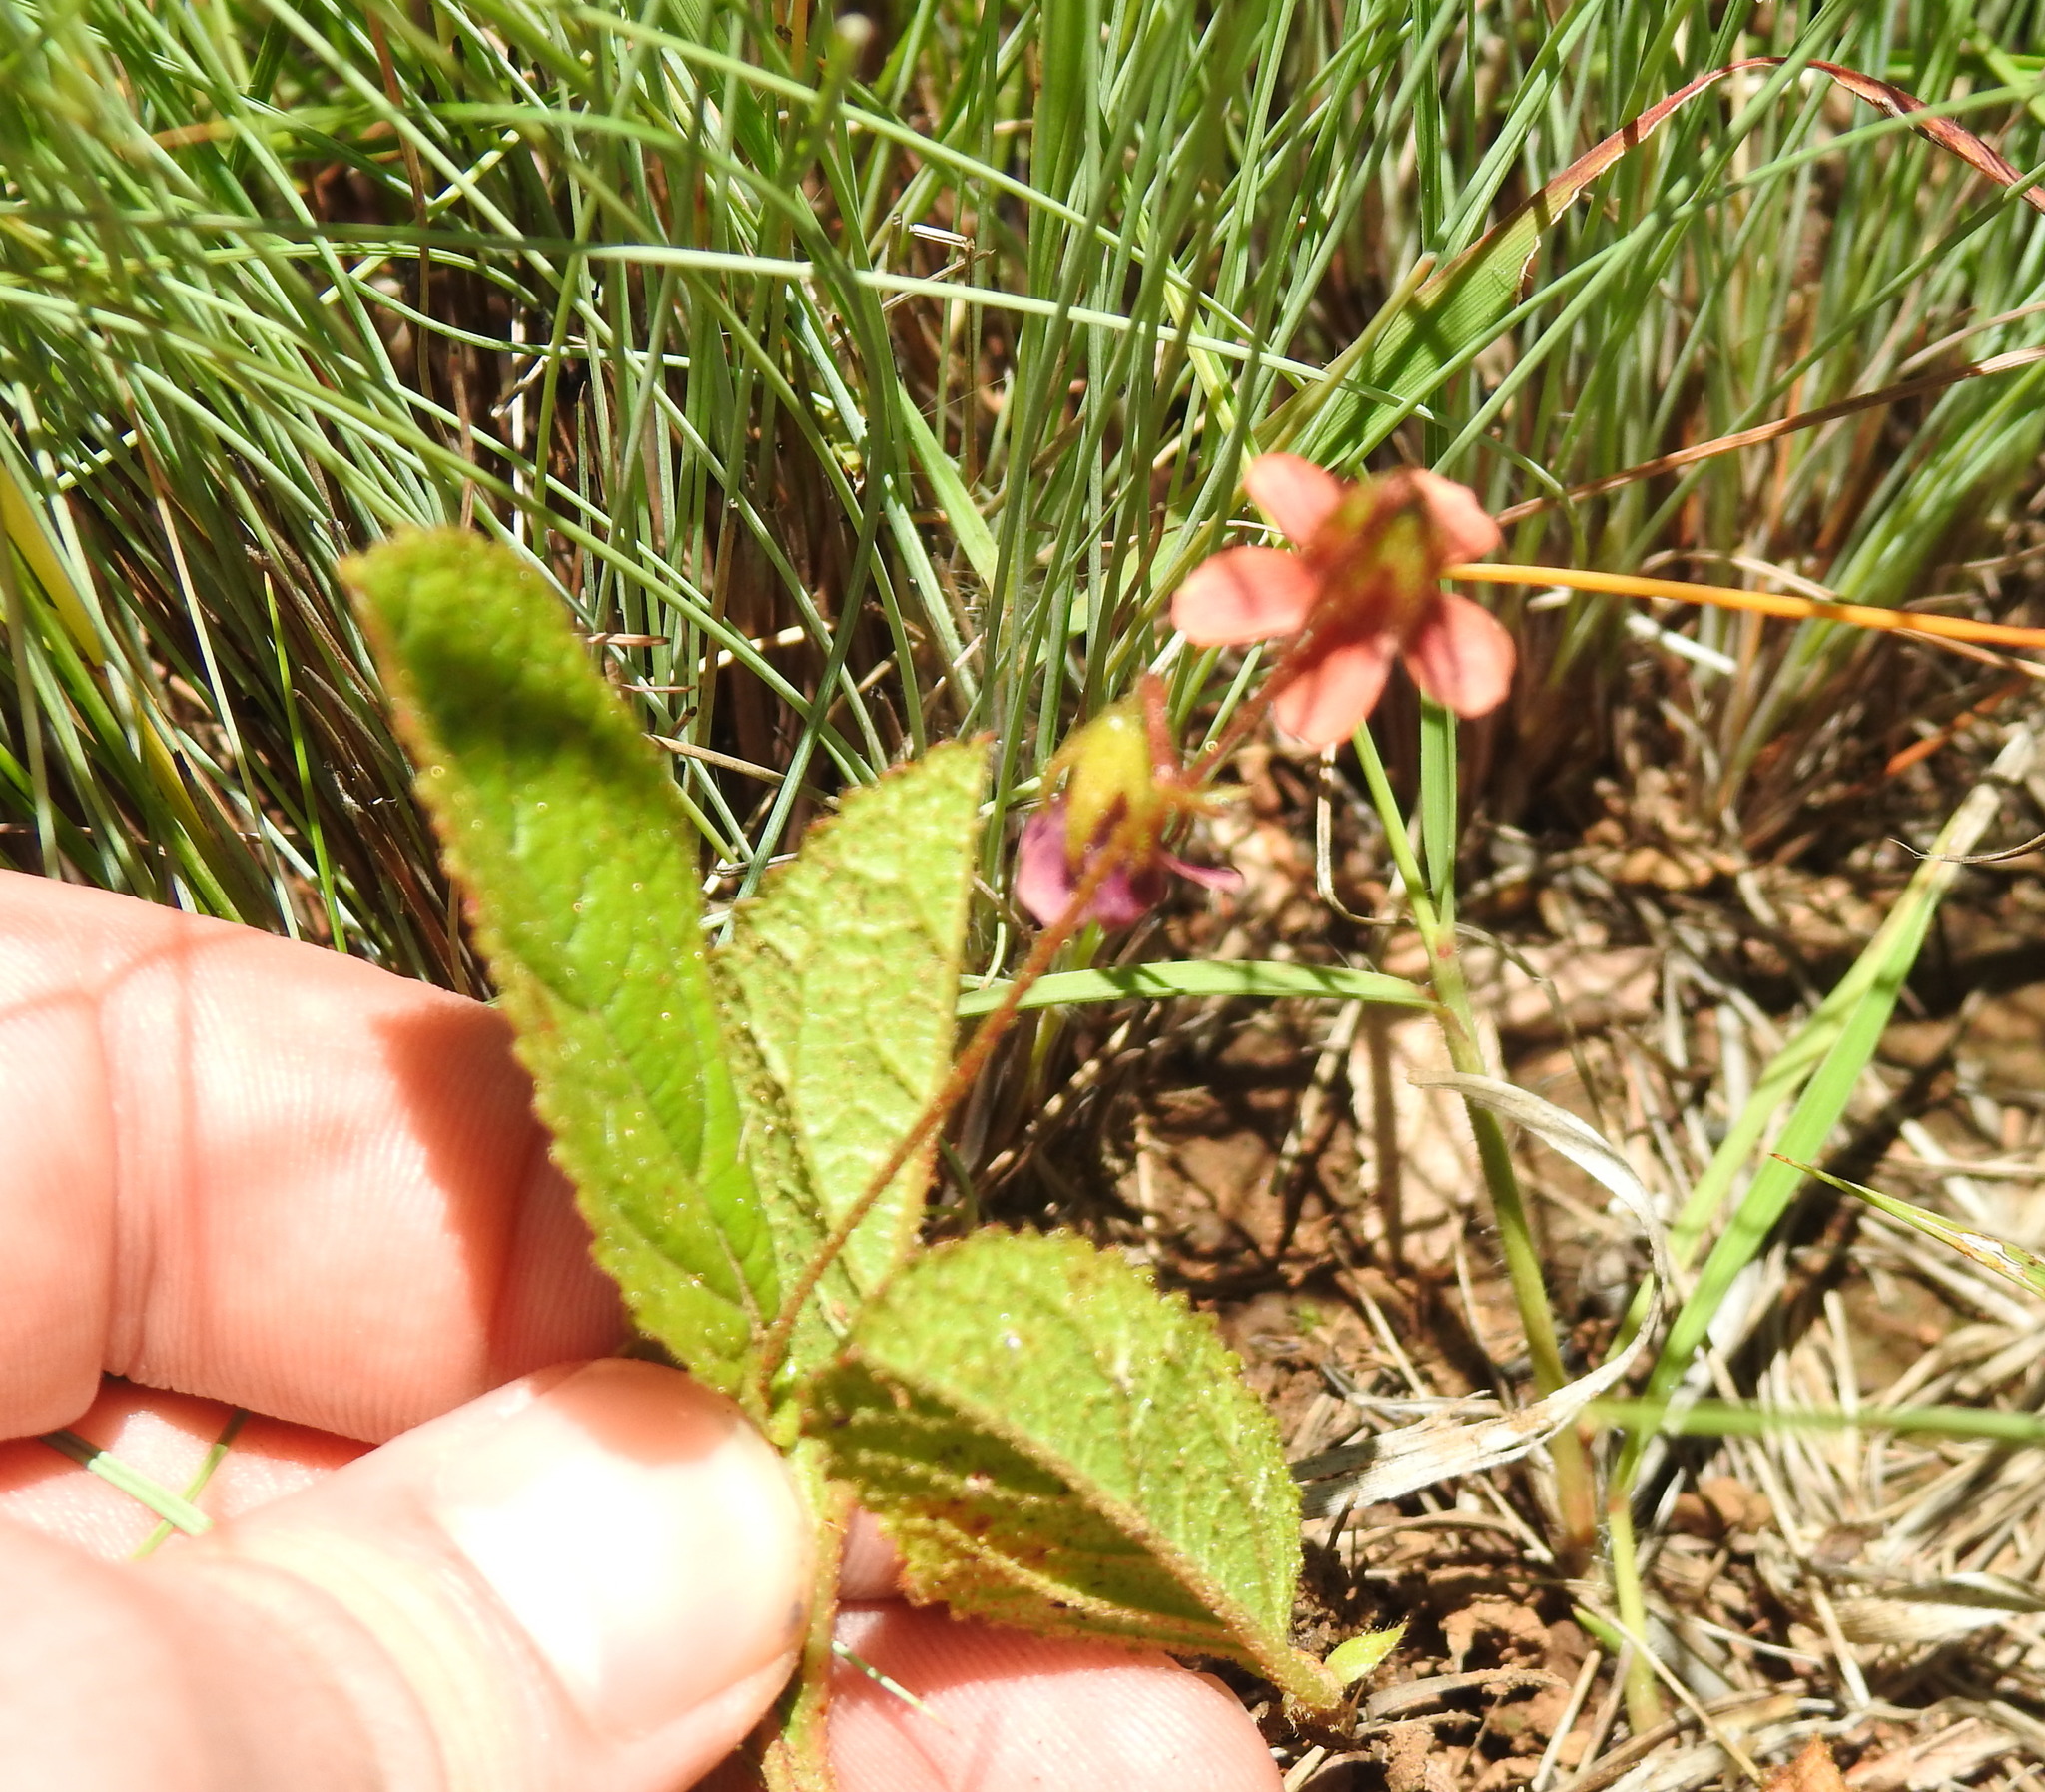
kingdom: Plantae
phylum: Tracheophyta
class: Magnoliopsida
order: Malvales
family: Malvaceae
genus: Hermannia
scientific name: Hermannia depressa
